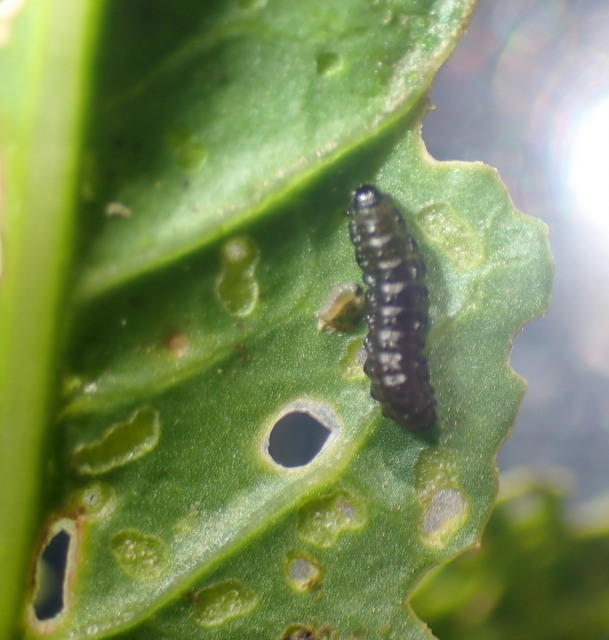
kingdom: Animalia
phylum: Arthropoda
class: Insecta
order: Coleoptera
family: Chrysomelidae
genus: Agasicles
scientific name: Agasicles hygrophila
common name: Alligatorweed flea beetle
